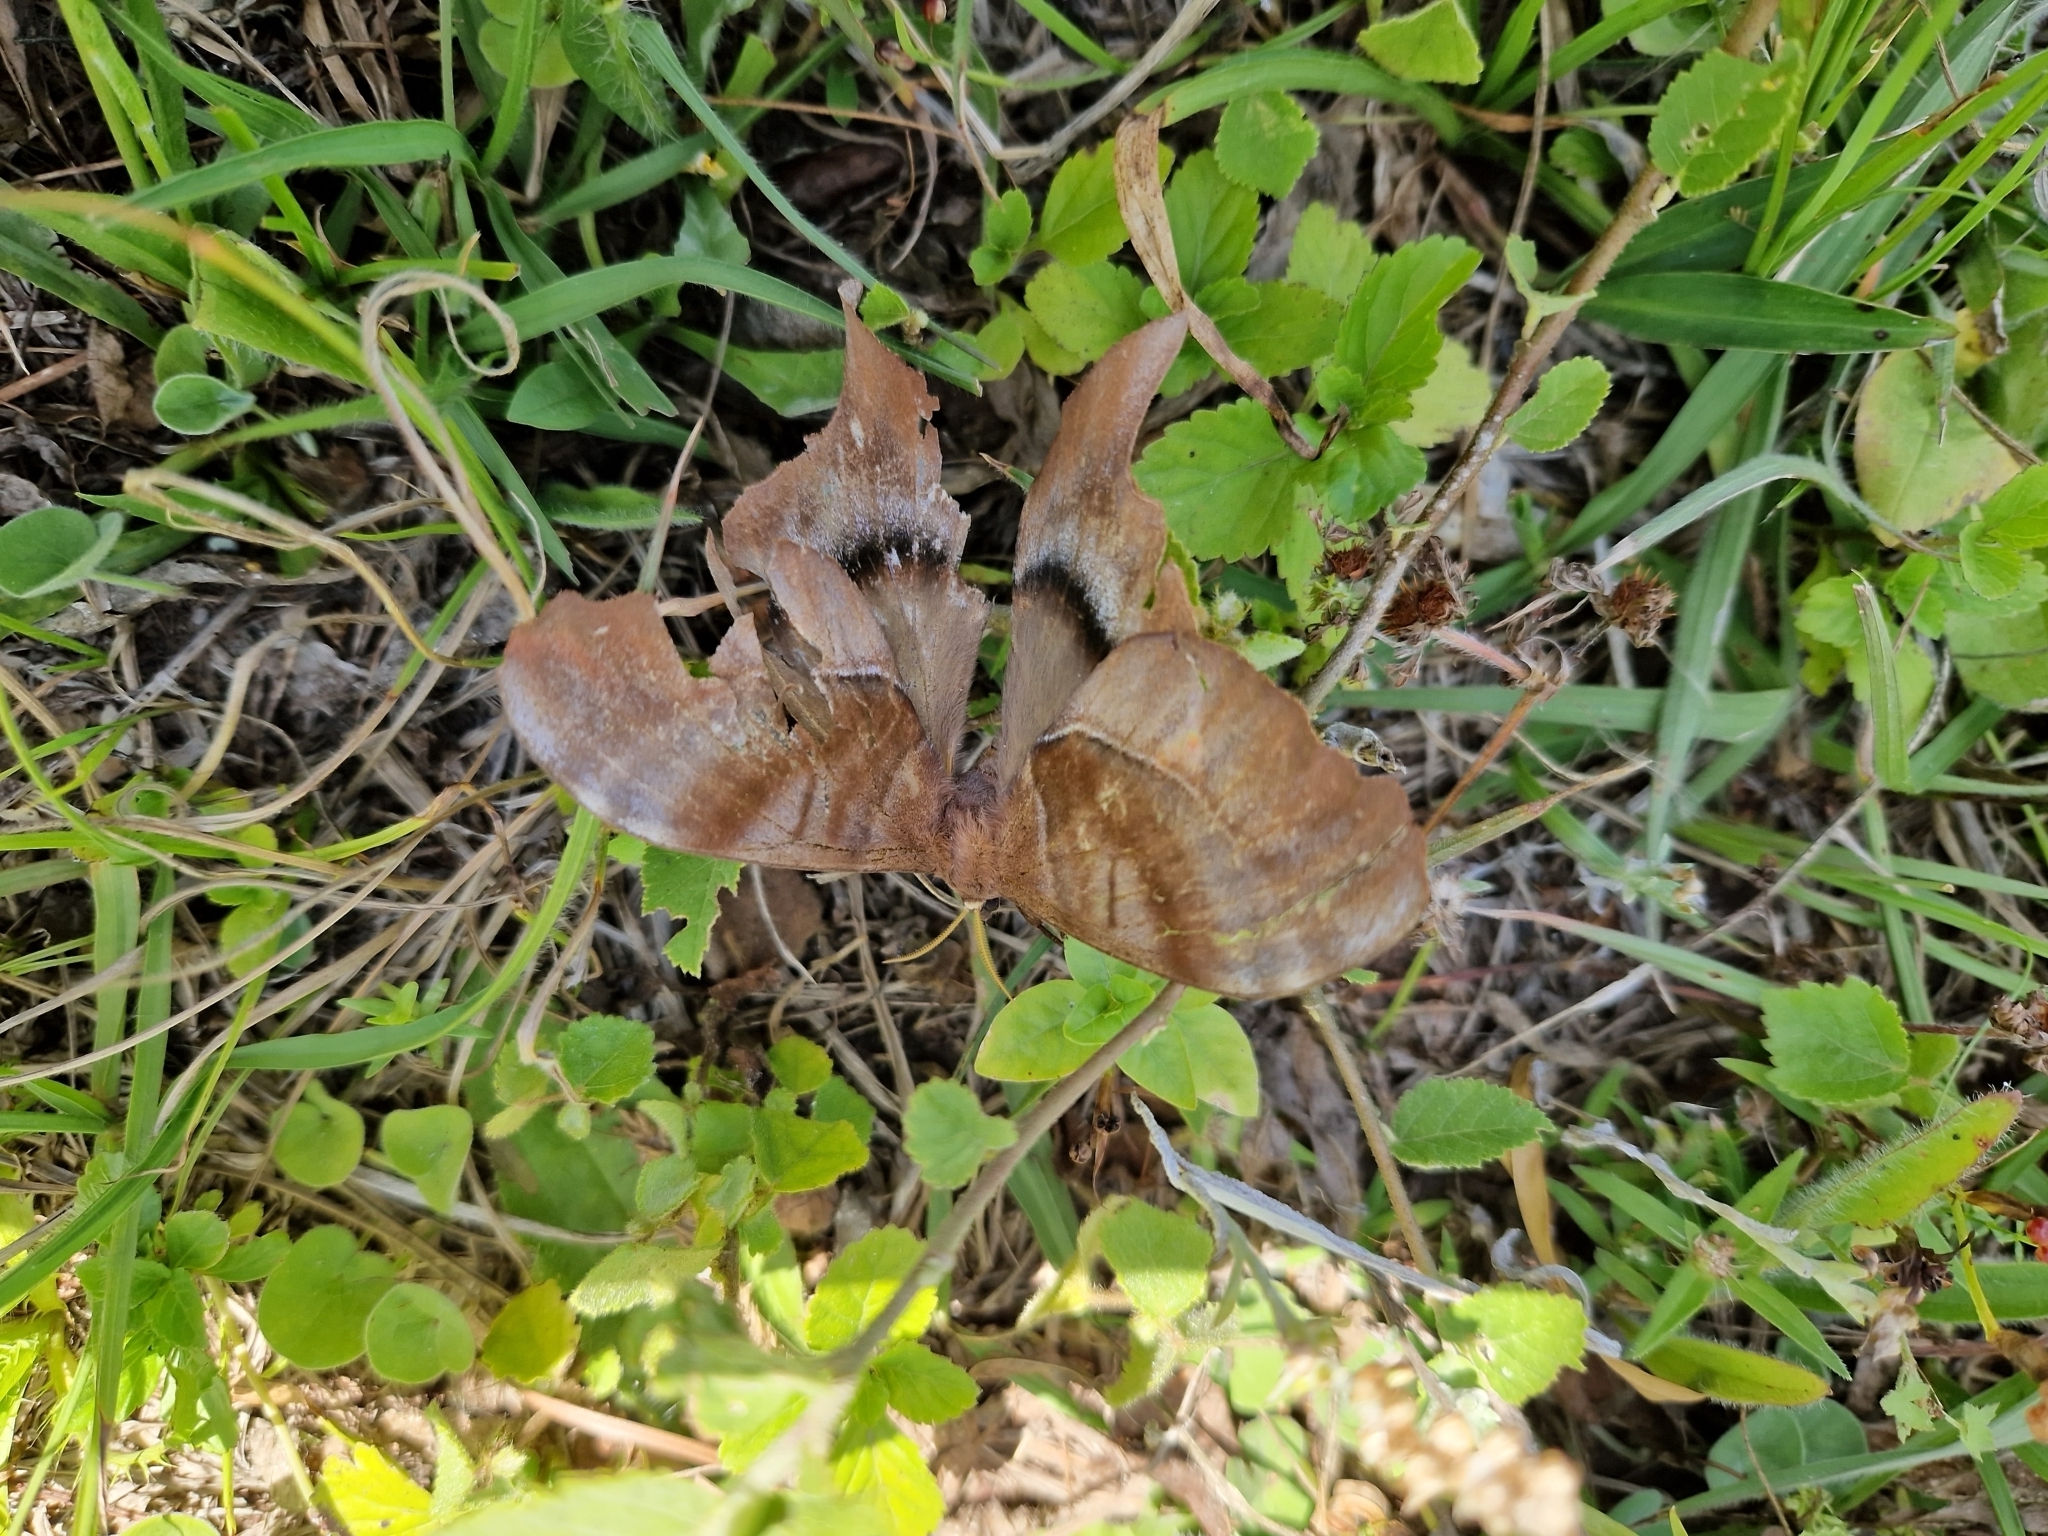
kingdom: Animalia
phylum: Arthropoda
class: Insecta
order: Lepidoptera
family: Saturniidae
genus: Paradaemonia
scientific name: Paradaemonia thelia
